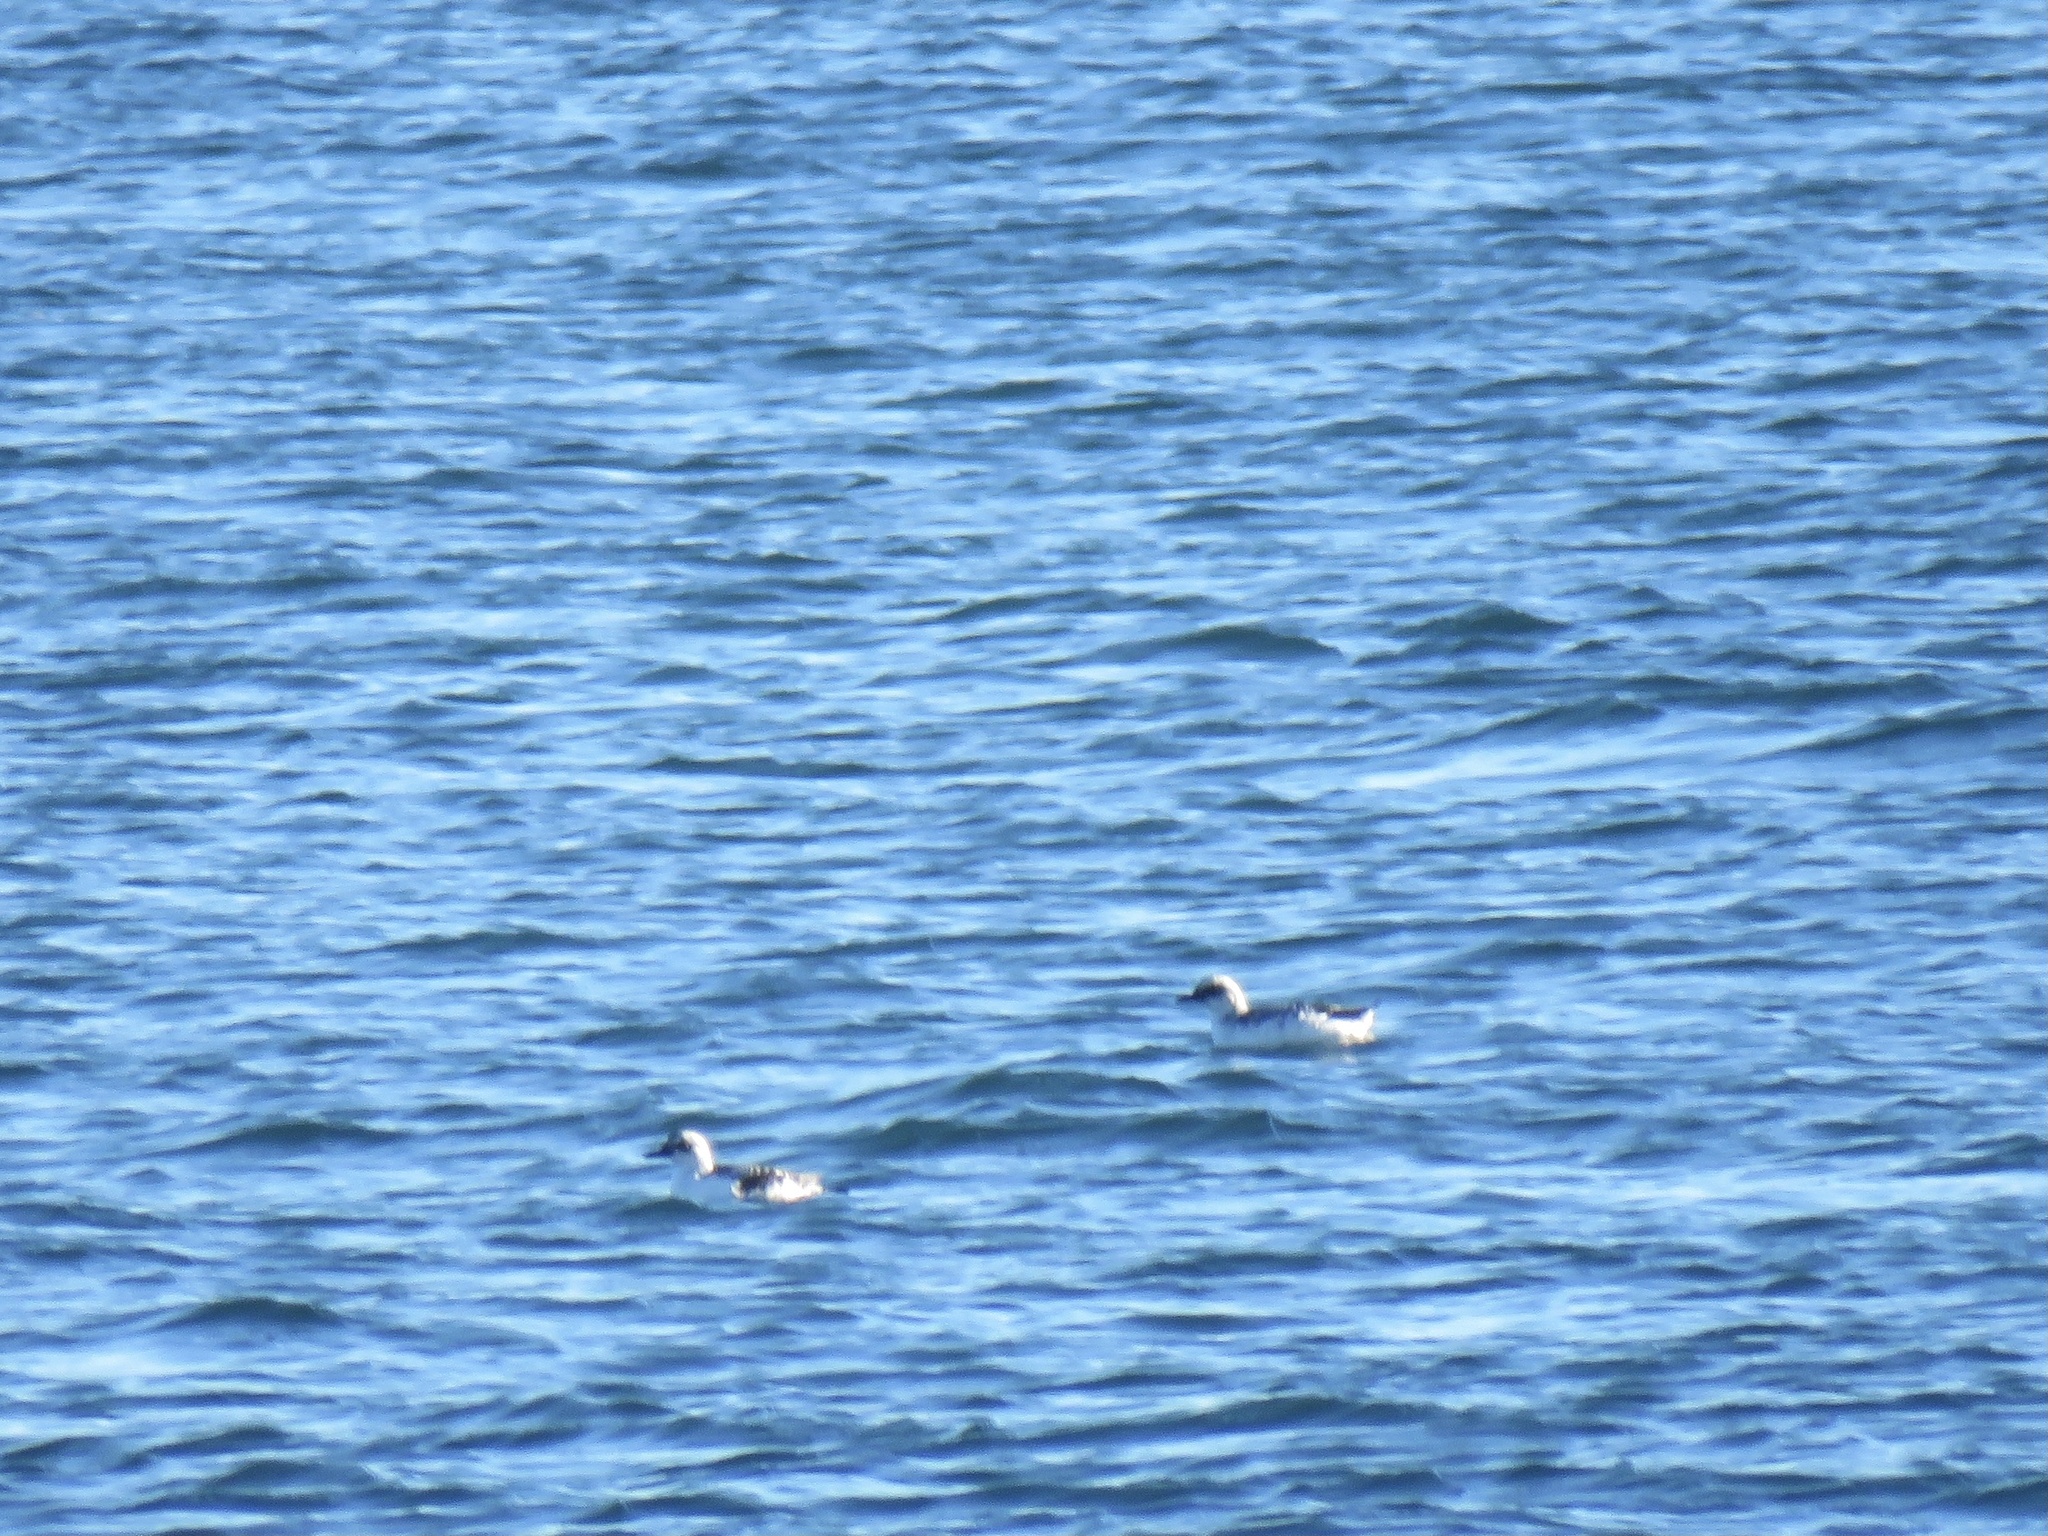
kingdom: Animalia
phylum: Chordata
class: Aves
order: Charadriiformes
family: Alcidae
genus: Cepphus
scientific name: Cepphus columba
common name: Pigeon guillemot
